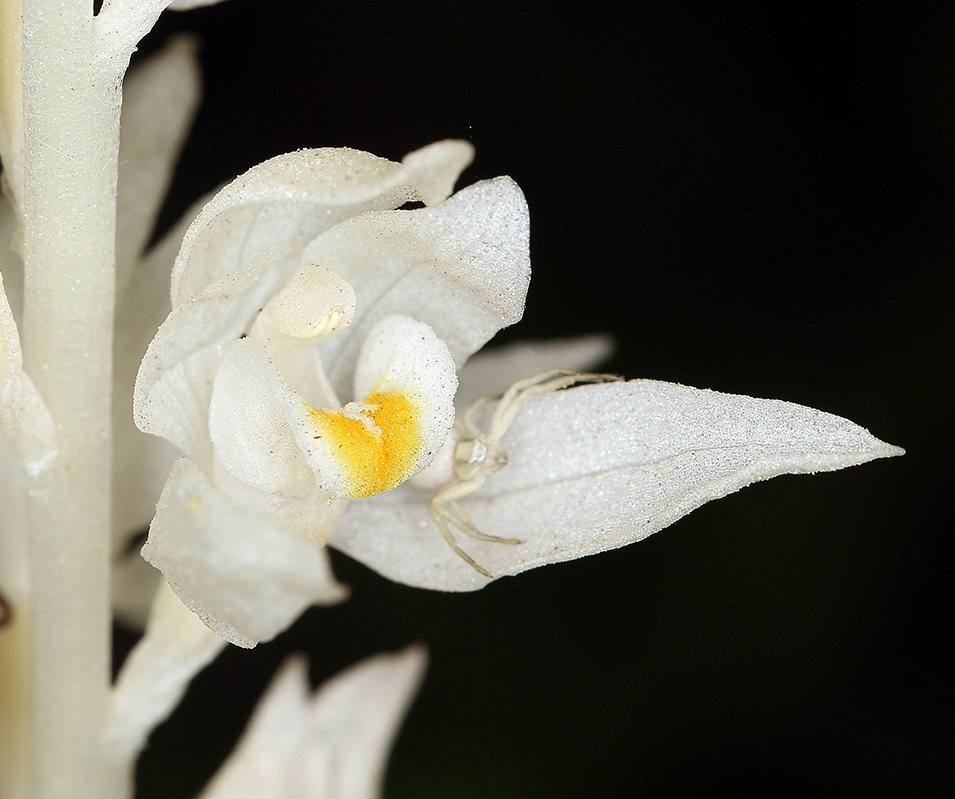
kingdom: Plantae
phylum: Tracheophyta
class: Liliopsida
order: Asparagales
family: Orchidaceae
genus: Cephalanthera
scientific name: Cephalanthera austiniae
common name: Phantom orchid
